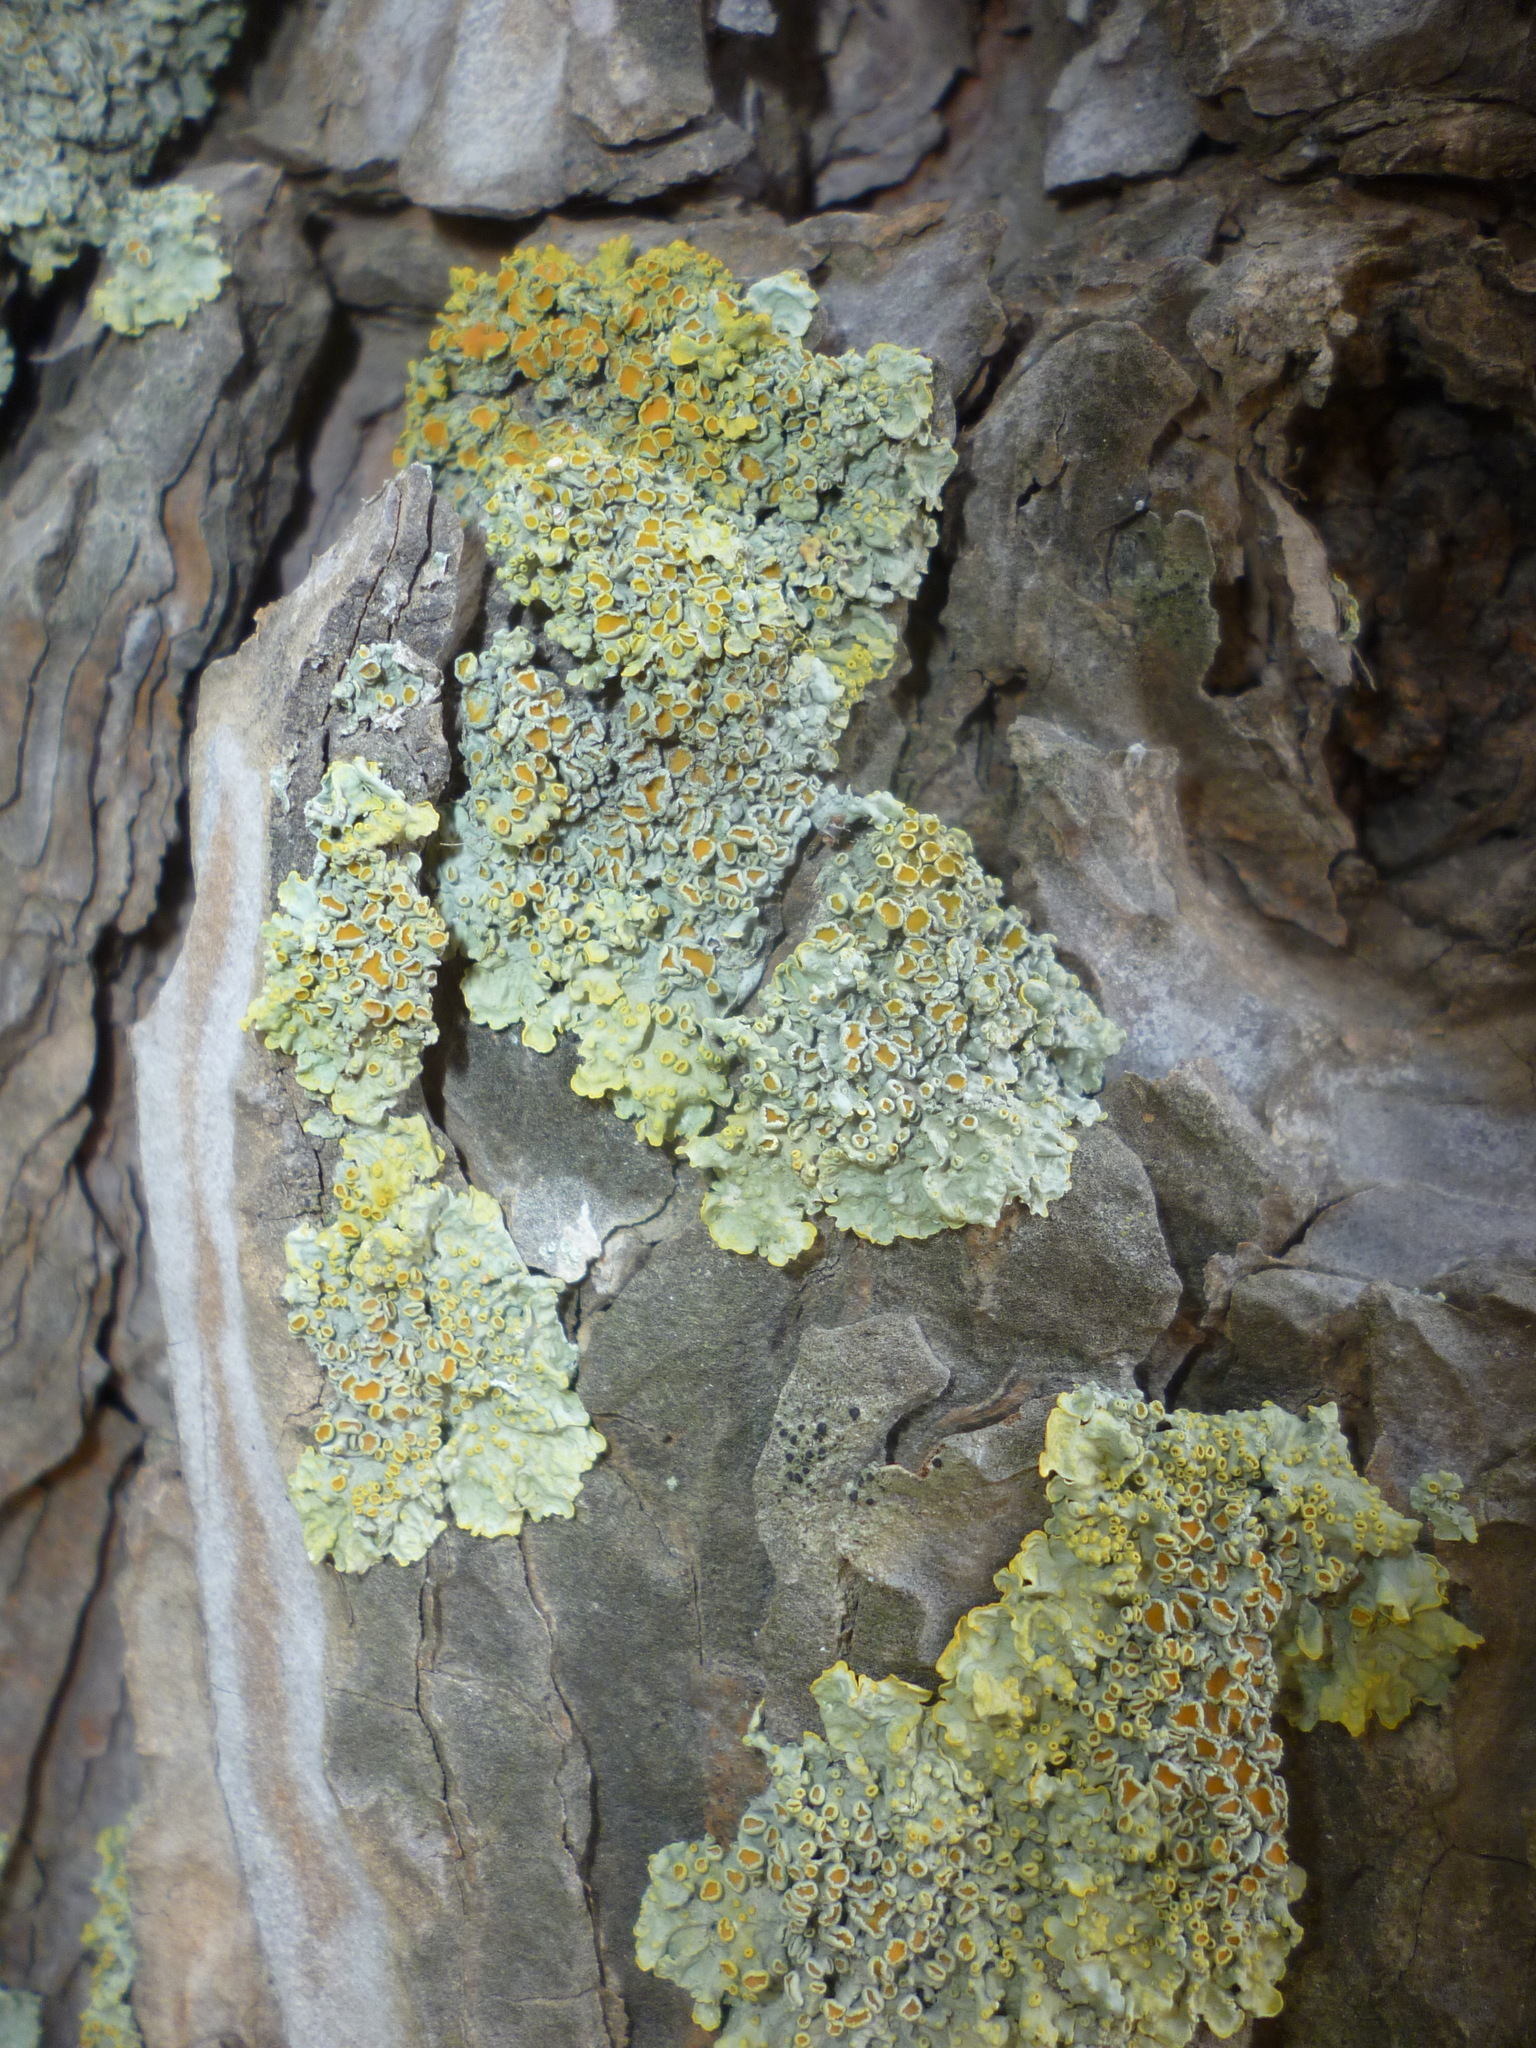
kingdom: Fungi
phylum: Ascomycota
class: Lecanoromycetes
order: Teloschistales
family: Teloschistaceae
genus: Xanthoria
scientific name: Xanthoria parietina
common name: Common orange lichen
